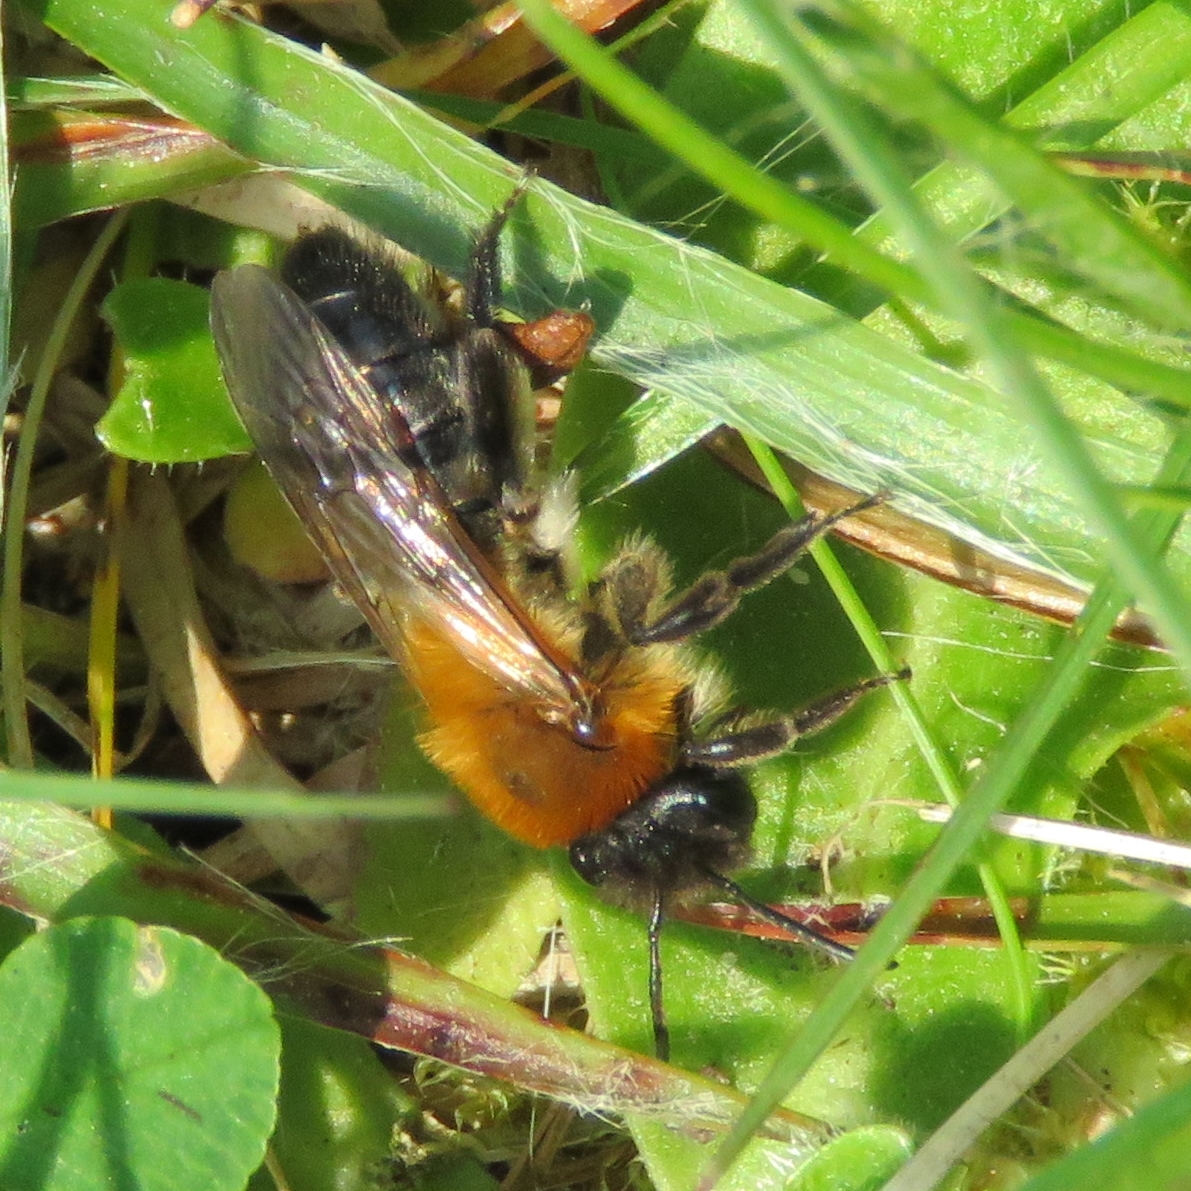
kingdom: Animalia
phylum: Arthropoda
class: Insecta
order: Hymenoptera
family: Andrenidae
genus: Andrena
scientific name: Andrena nitida
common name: Grey-patched mining bee
